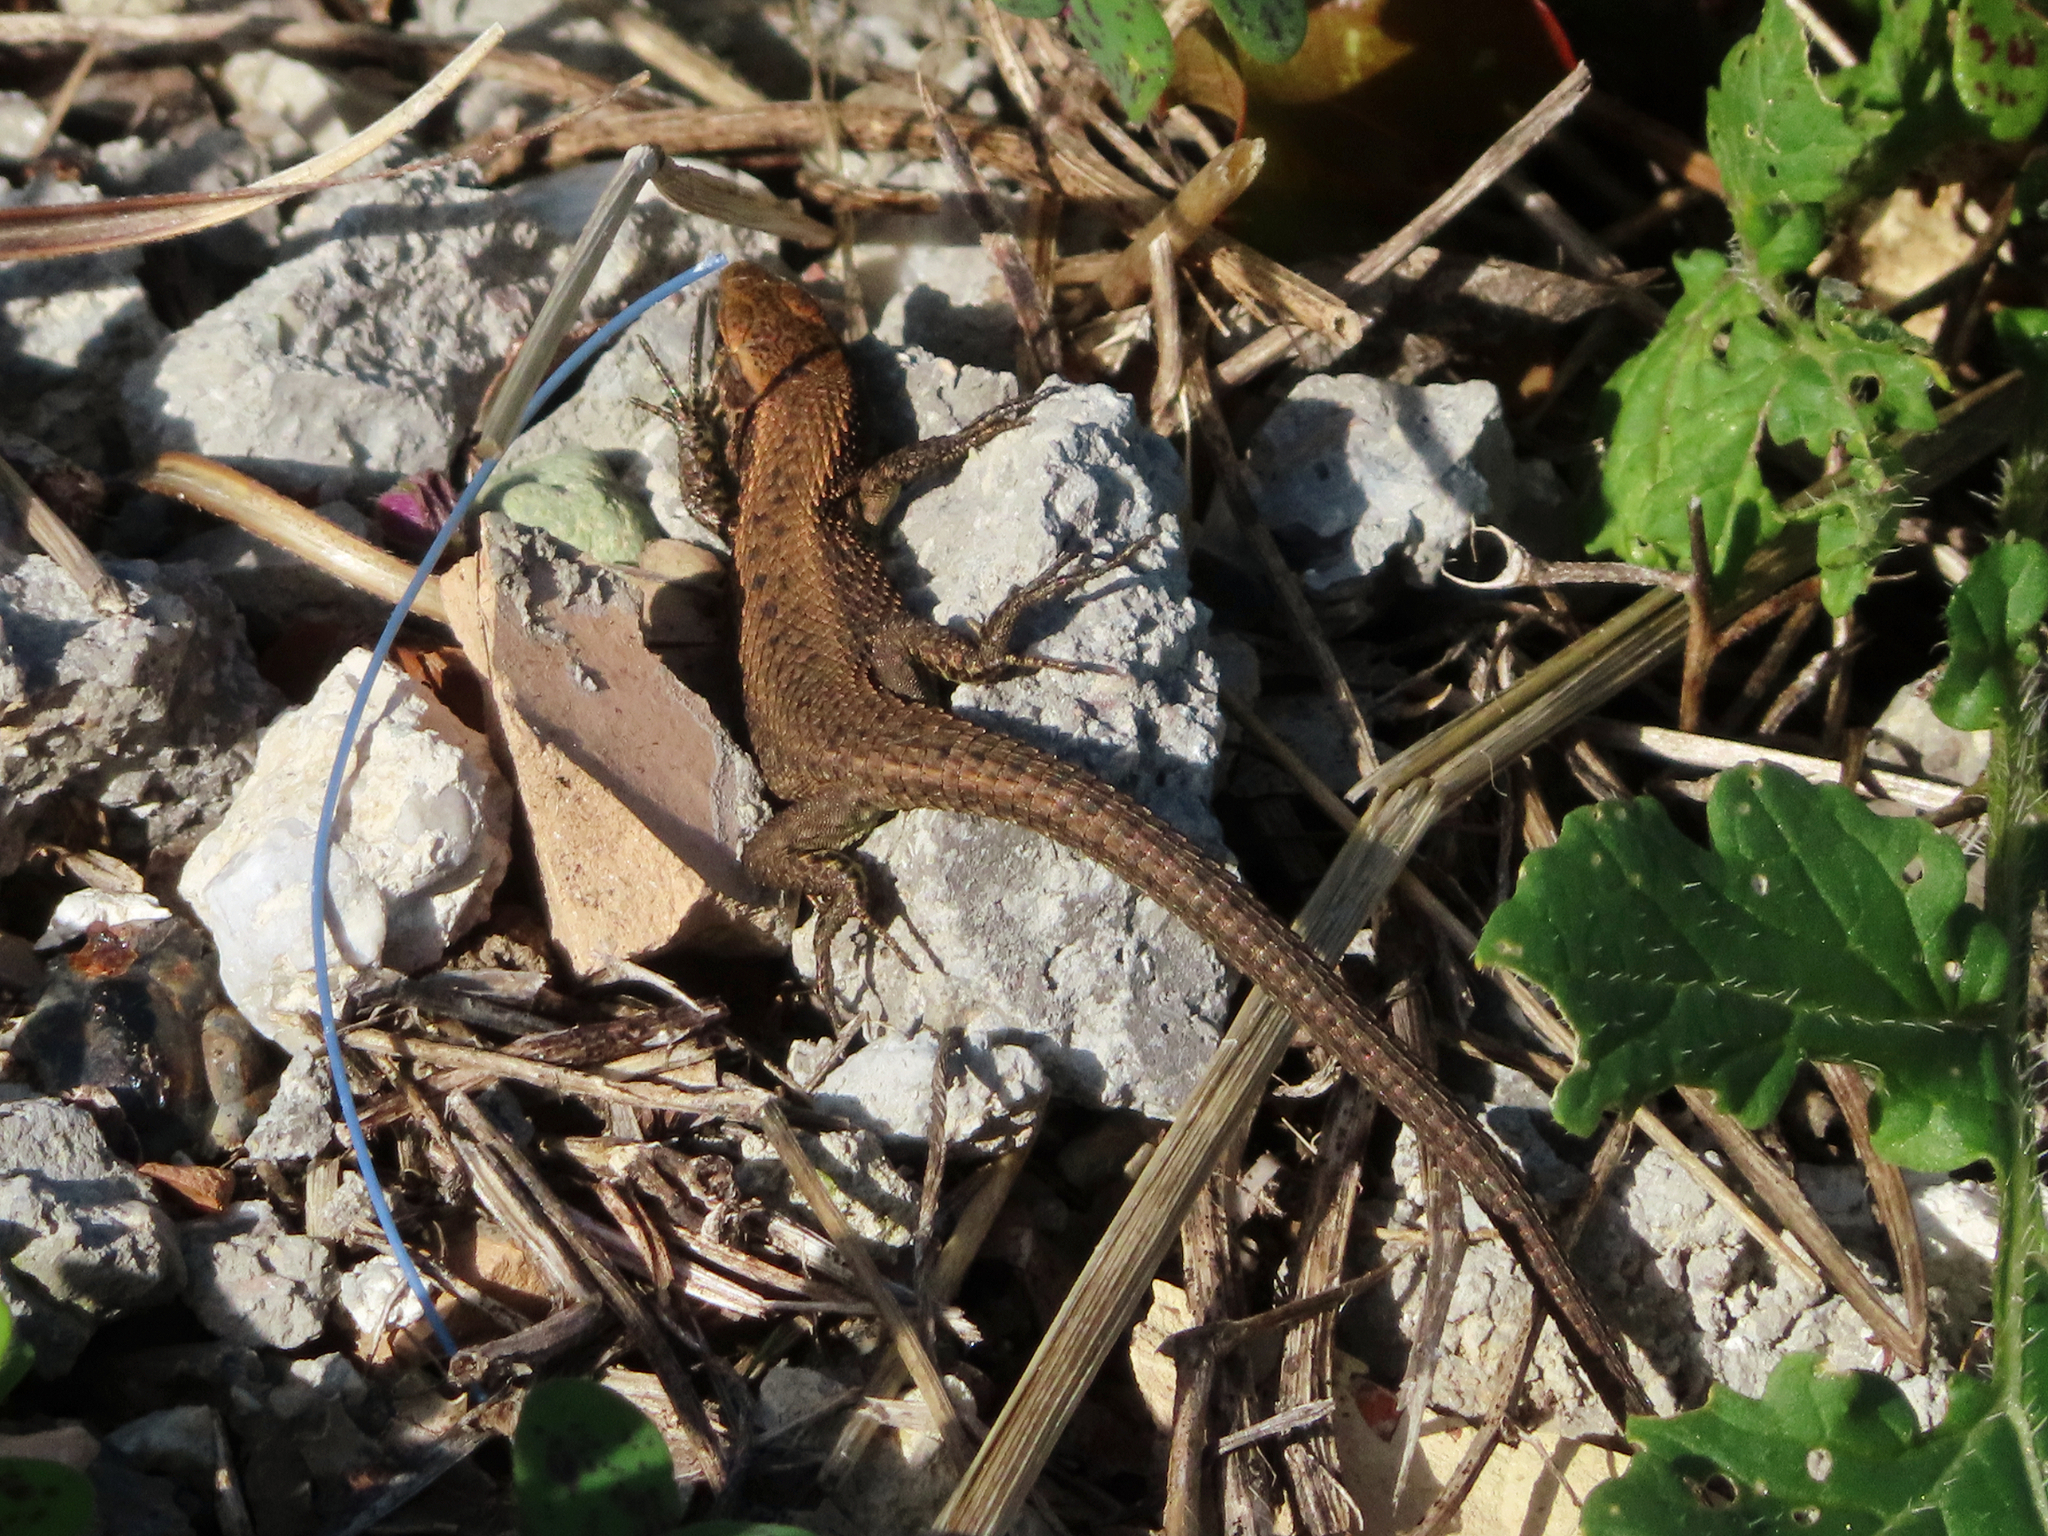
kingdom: Animalia
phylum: Chordata
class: Squamata
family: Lacertidae
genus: Algyroides
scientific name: Algyroides moreoticus
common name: Greek algyroides
